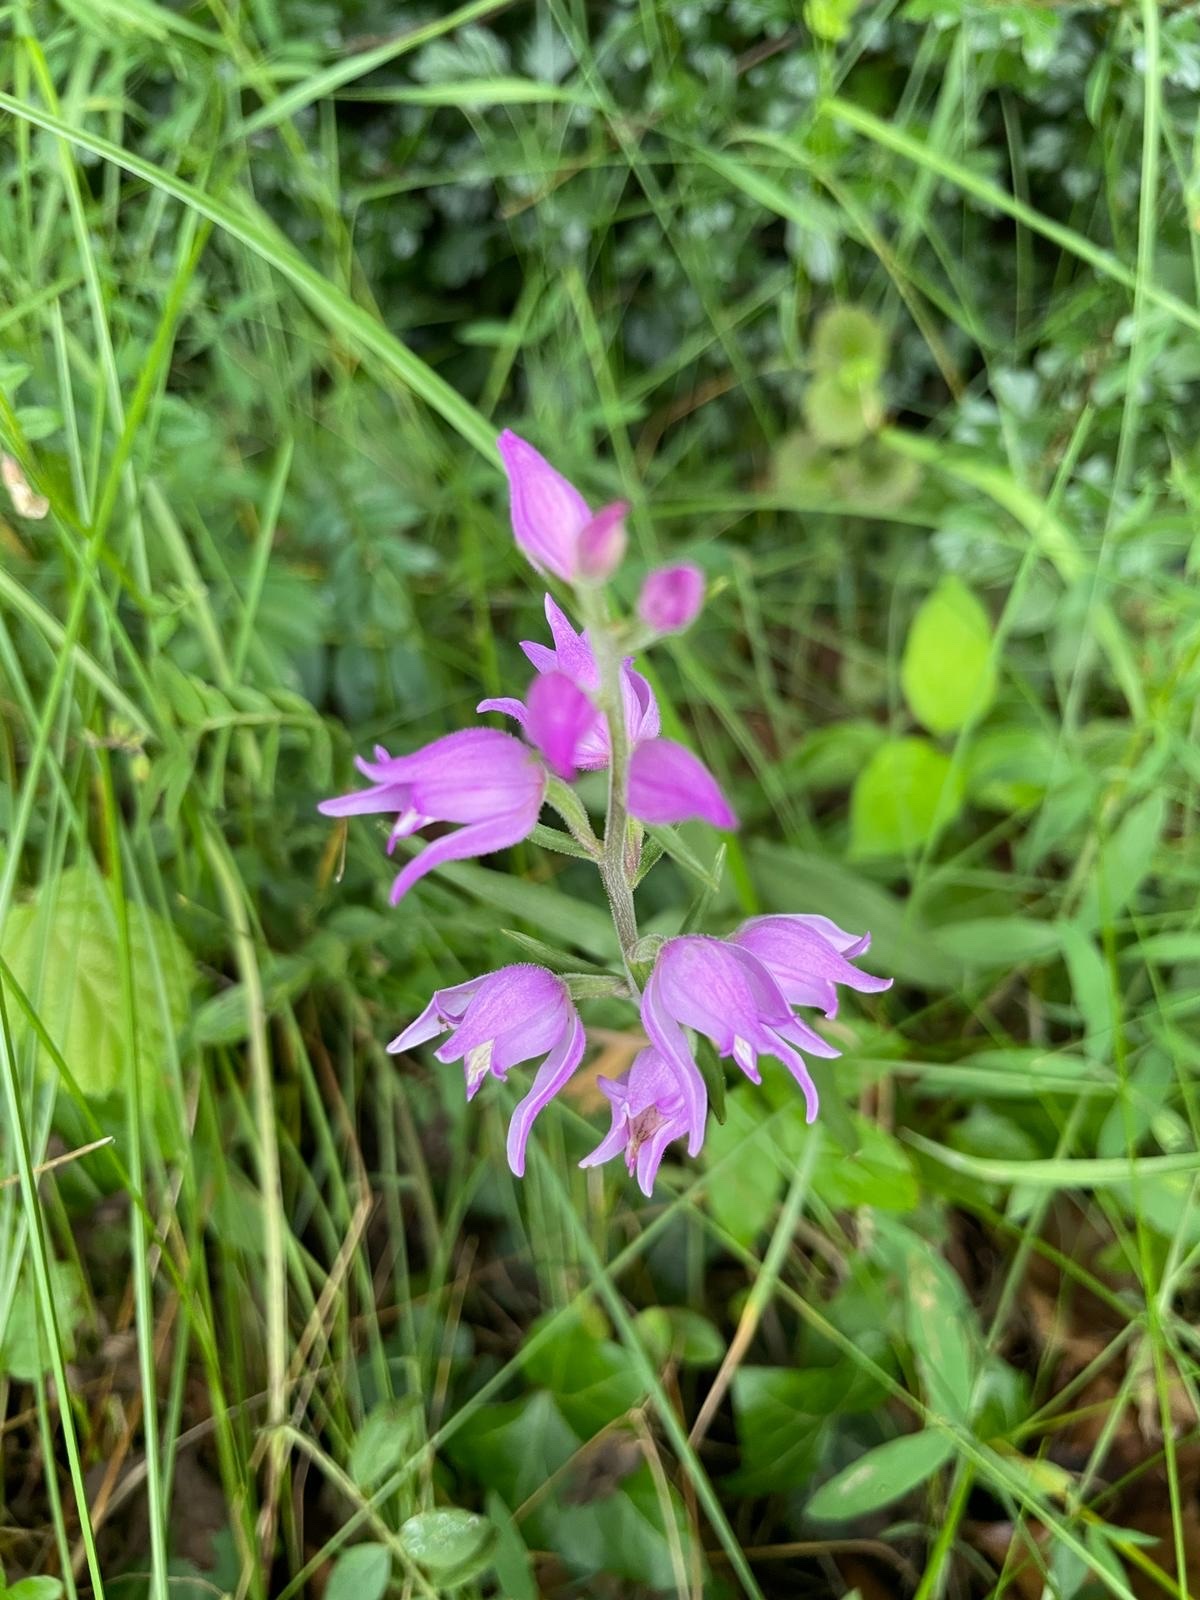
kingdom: Plantae
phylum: Tracheophyta
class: Liliopsida
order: Asparagales
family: Orchidaceae
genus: Cephalanthera
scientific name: Cephalanthera rubra
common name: Red helleborine
